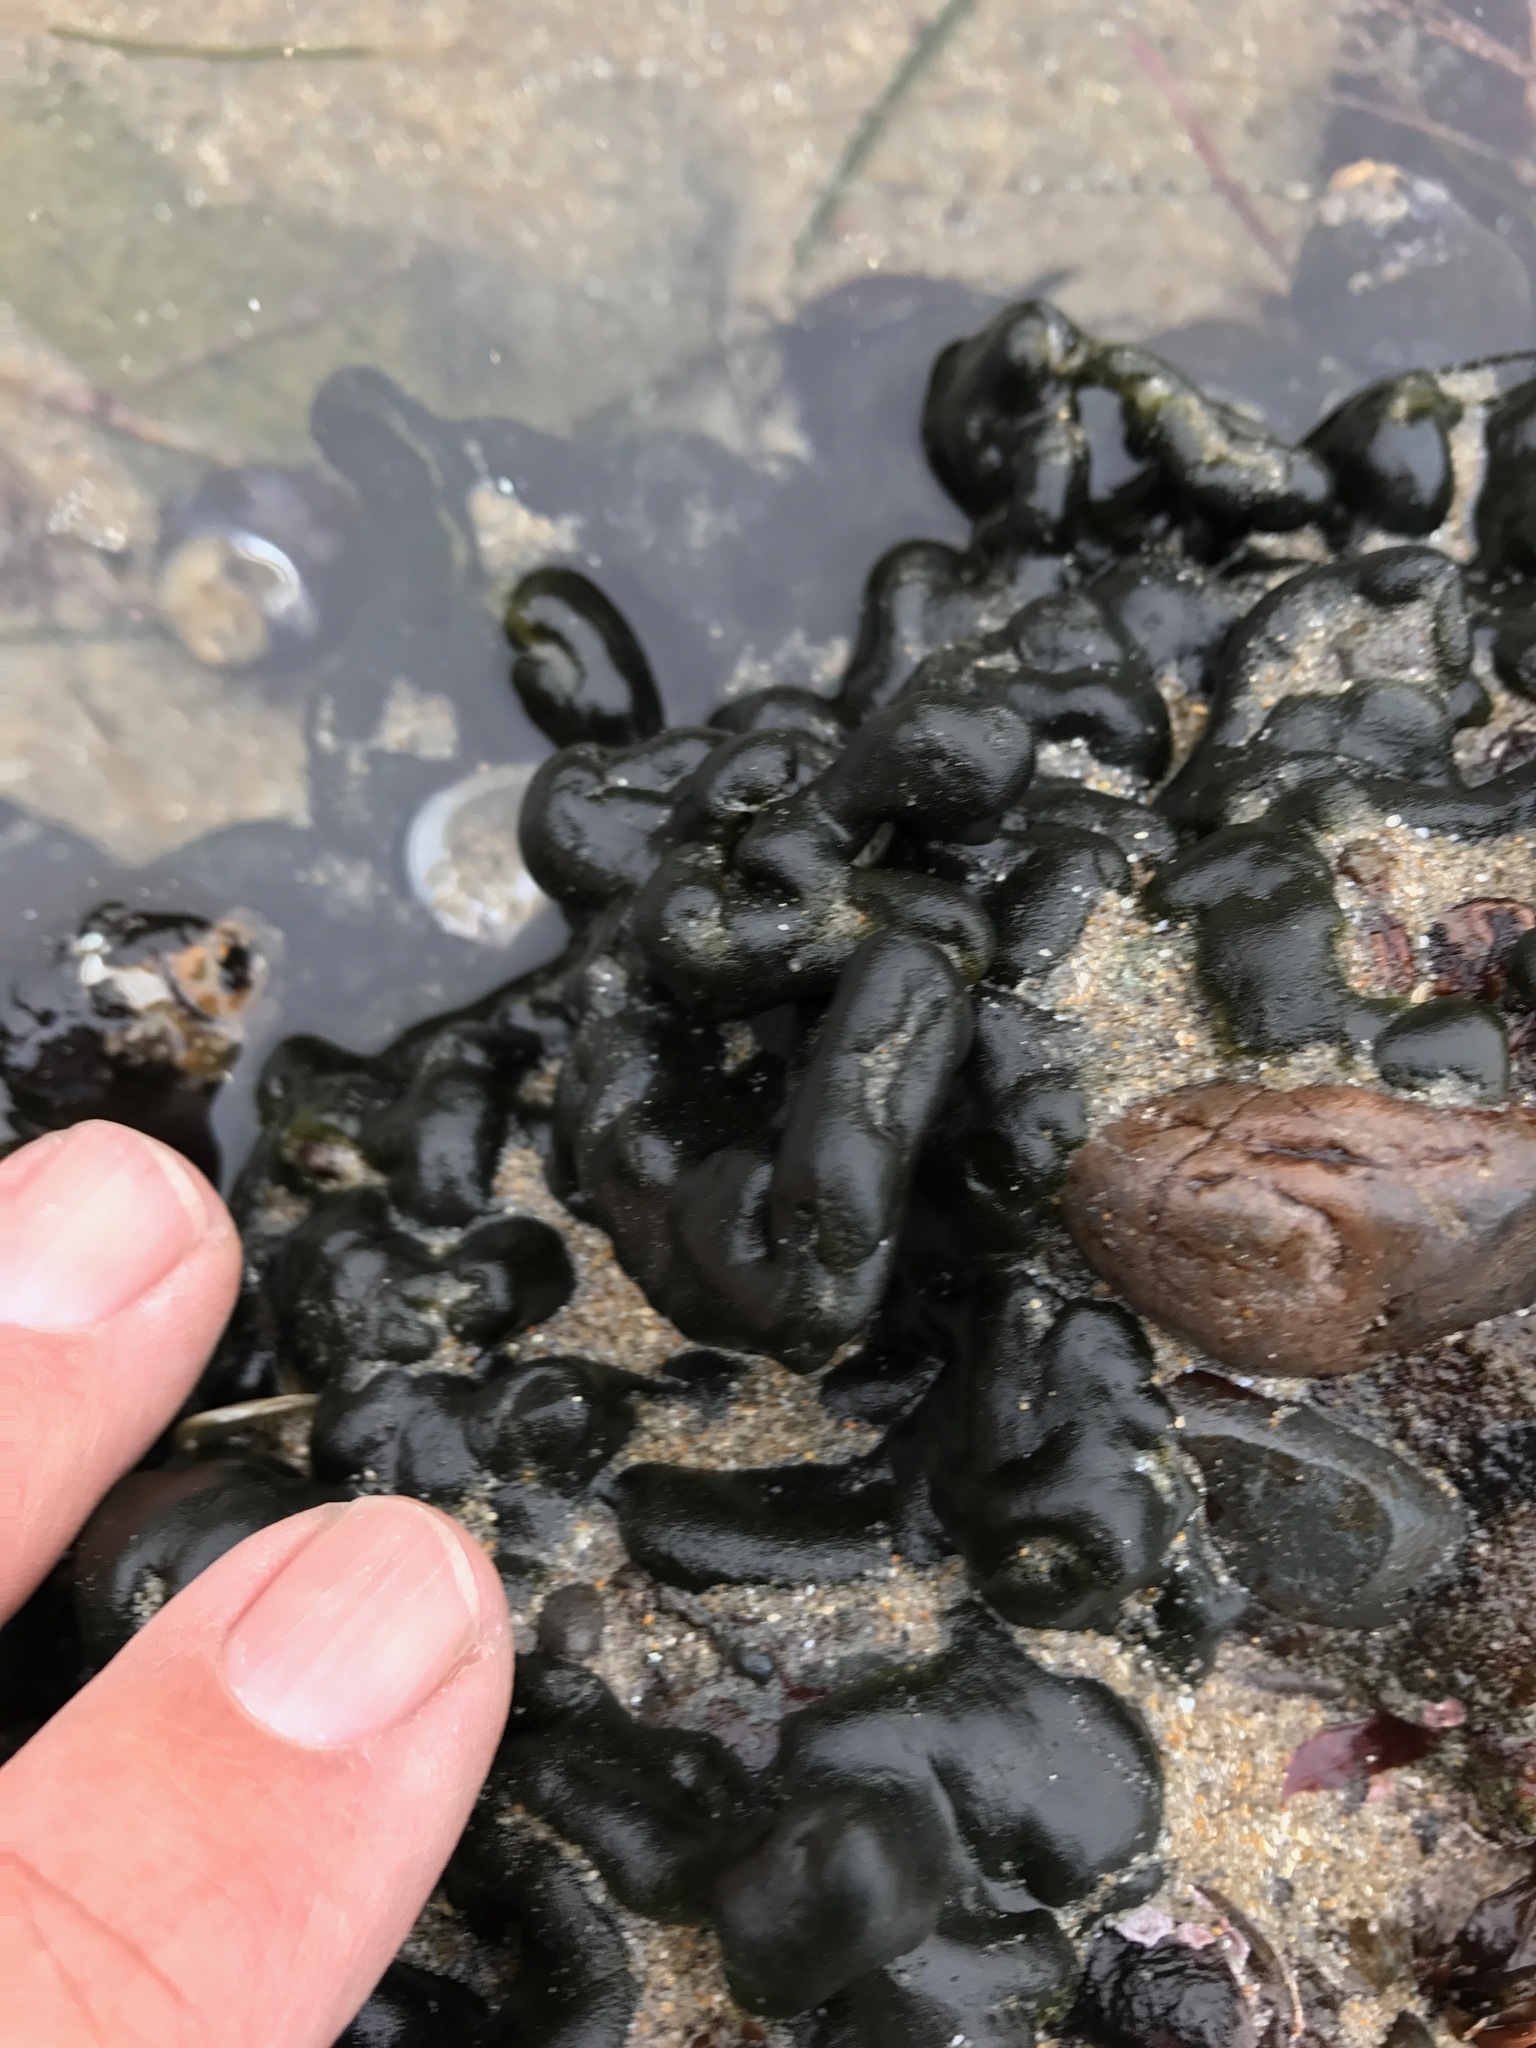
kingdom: Plantae
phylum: Chlorophyta
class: Ulvophyceae
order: Bryopsidales
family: Codiaceae
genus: Codium
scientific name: Codium setchellii
